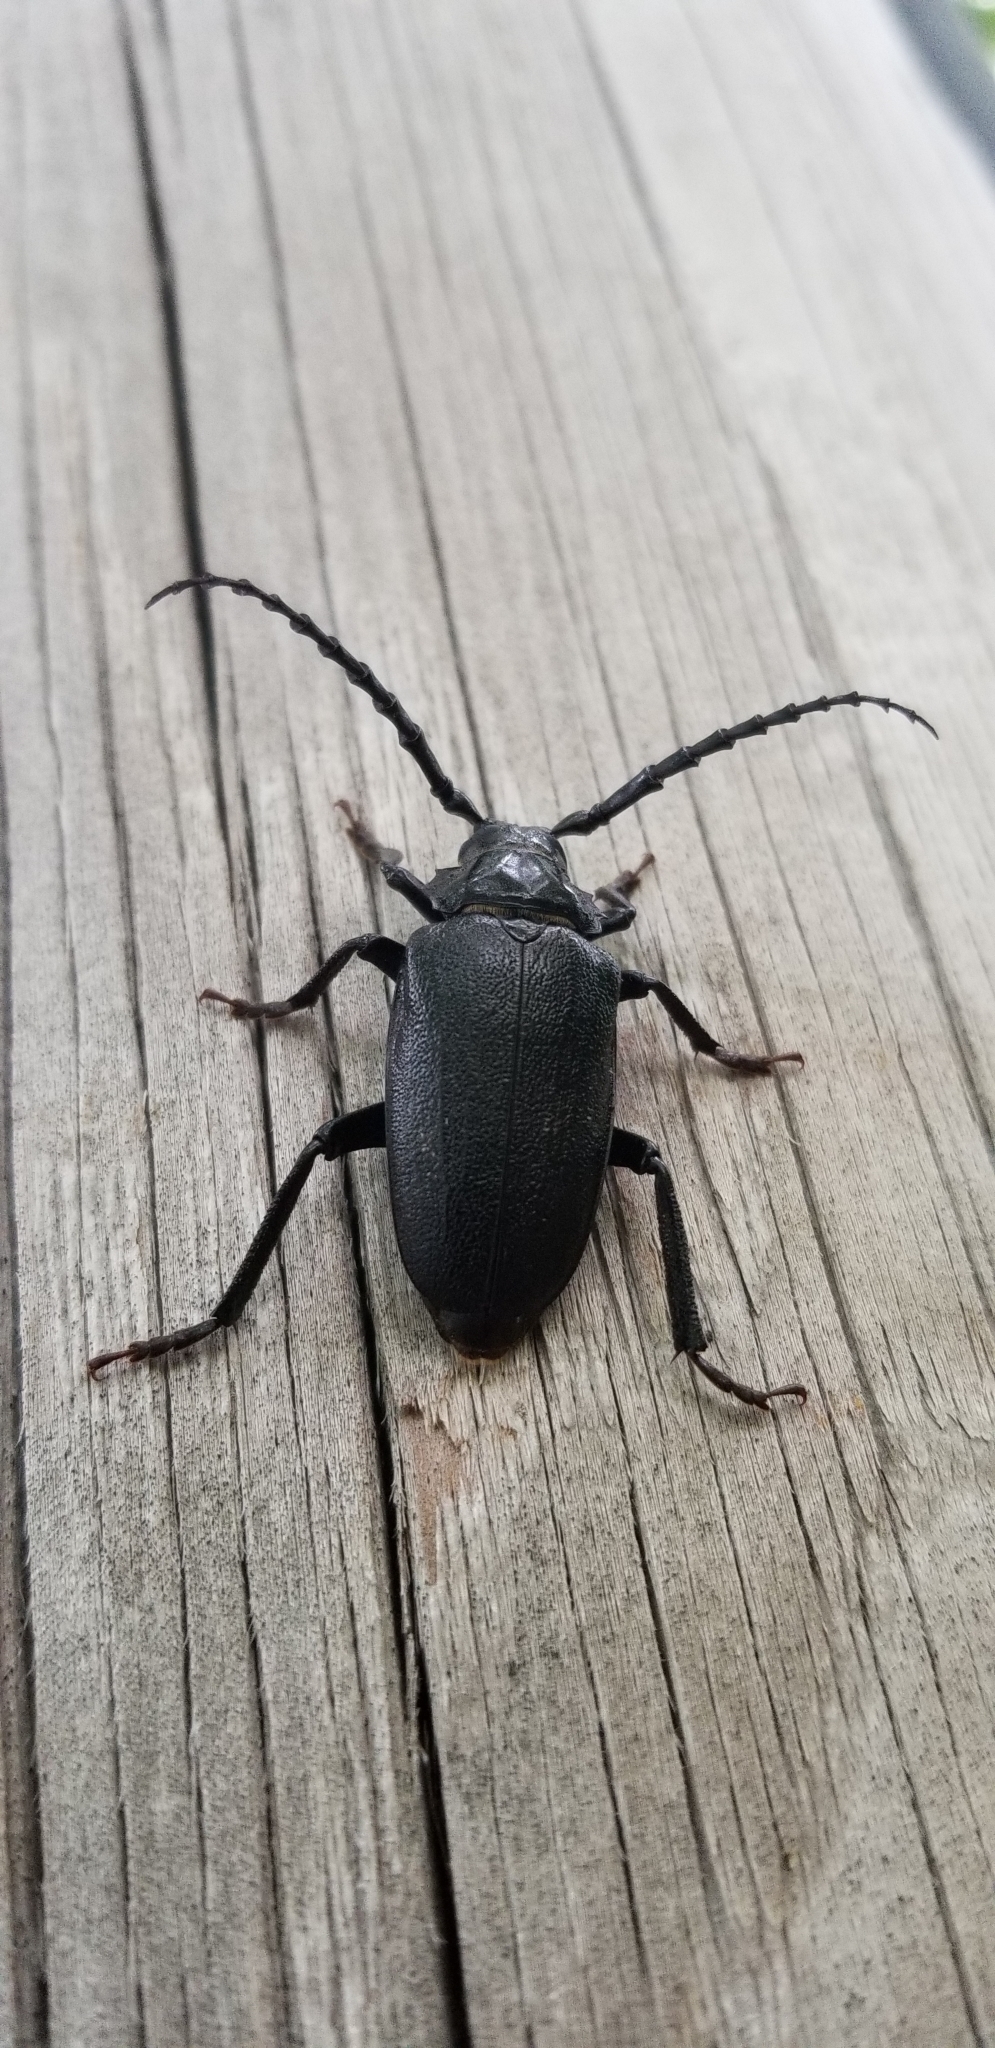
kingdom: Animalia
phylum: Arthropoda
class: Insecta
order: Coleoptera
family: Cerambycidae
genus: Prionus
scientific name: Prionus laticollis
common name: Broad necked prionus
